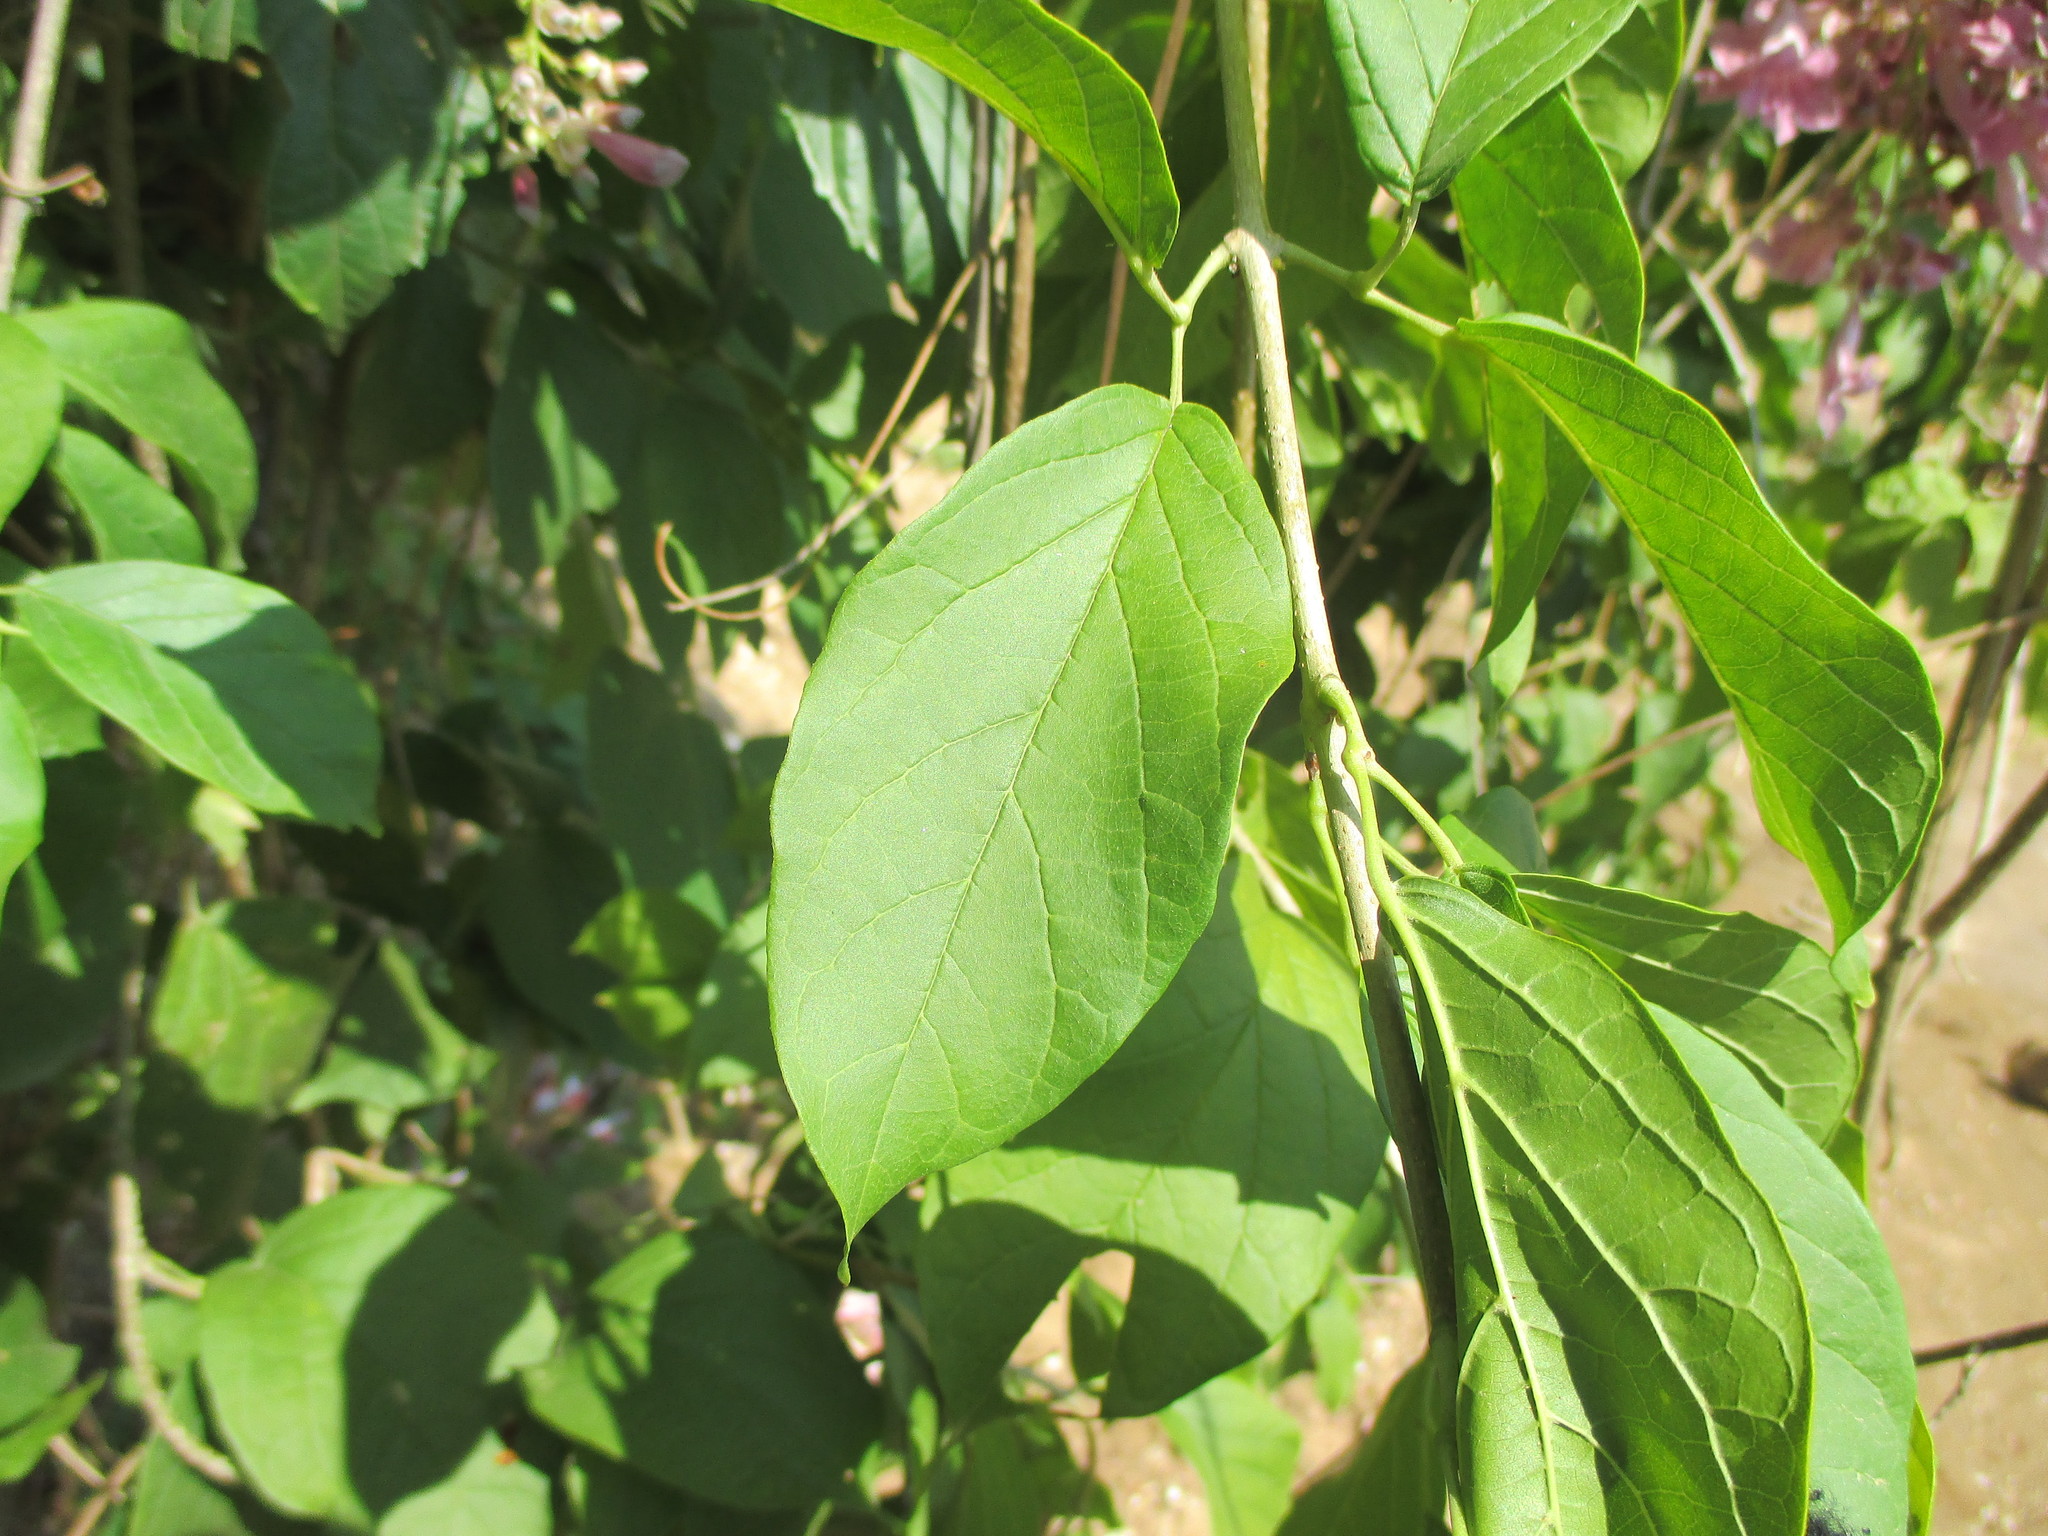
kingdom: Plantae
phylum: Tracheophyta
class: Magnoliopsida
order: Lamiales
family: Bignoniaceae
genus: Fridericia
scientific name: Fridericia floribunda
